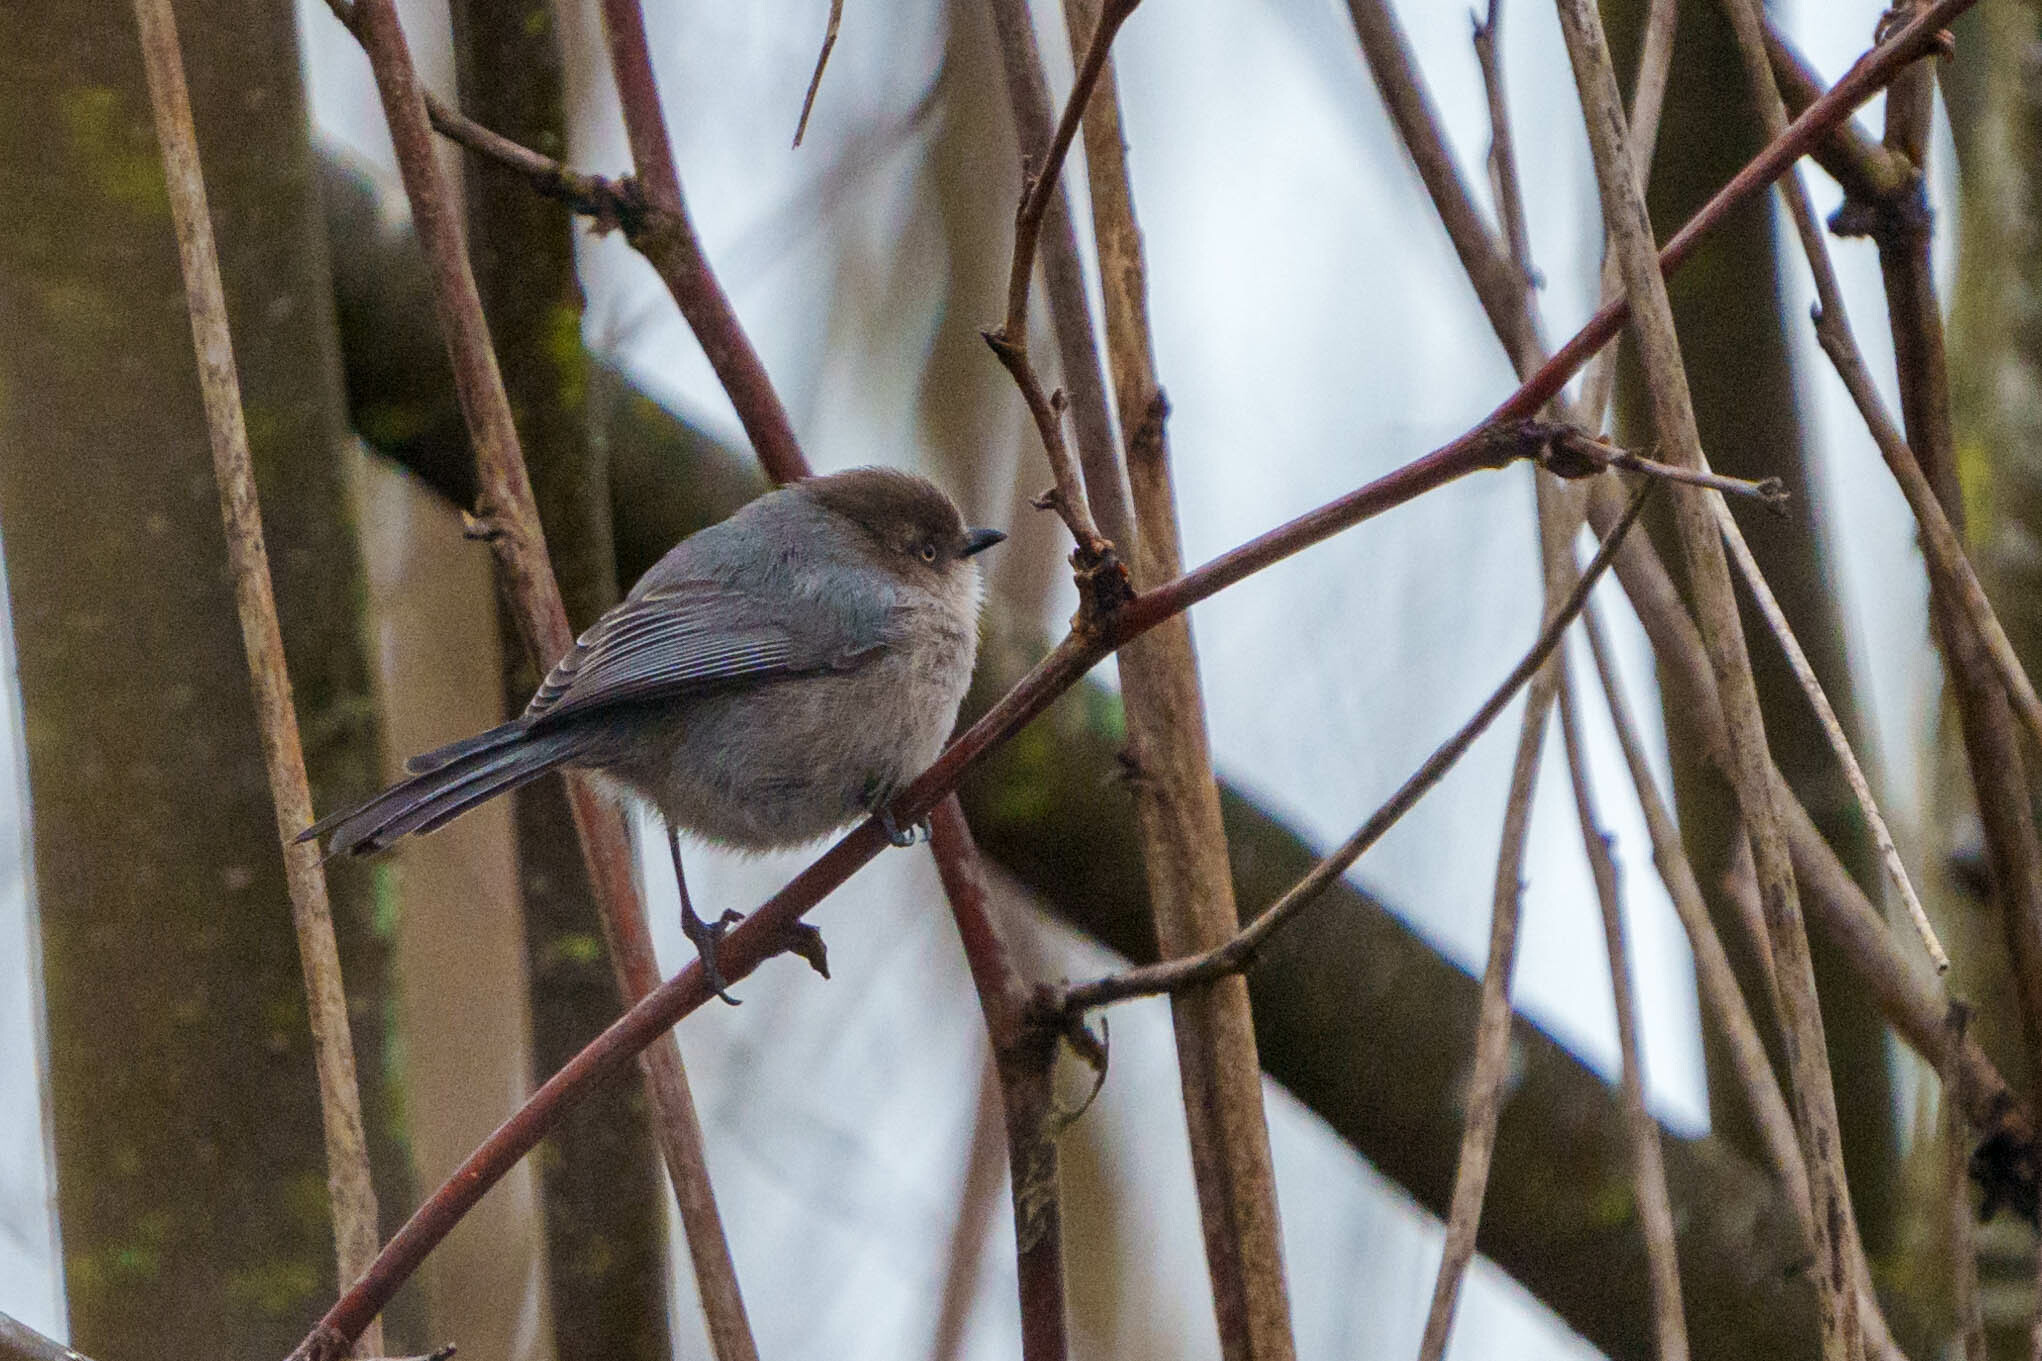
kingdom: Animalia
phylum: Chordata
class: Aves
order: Passeriformes
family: Aegithalidae
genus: Psaltriparus
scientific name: Psaltriparus minimus
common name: American bushtit
